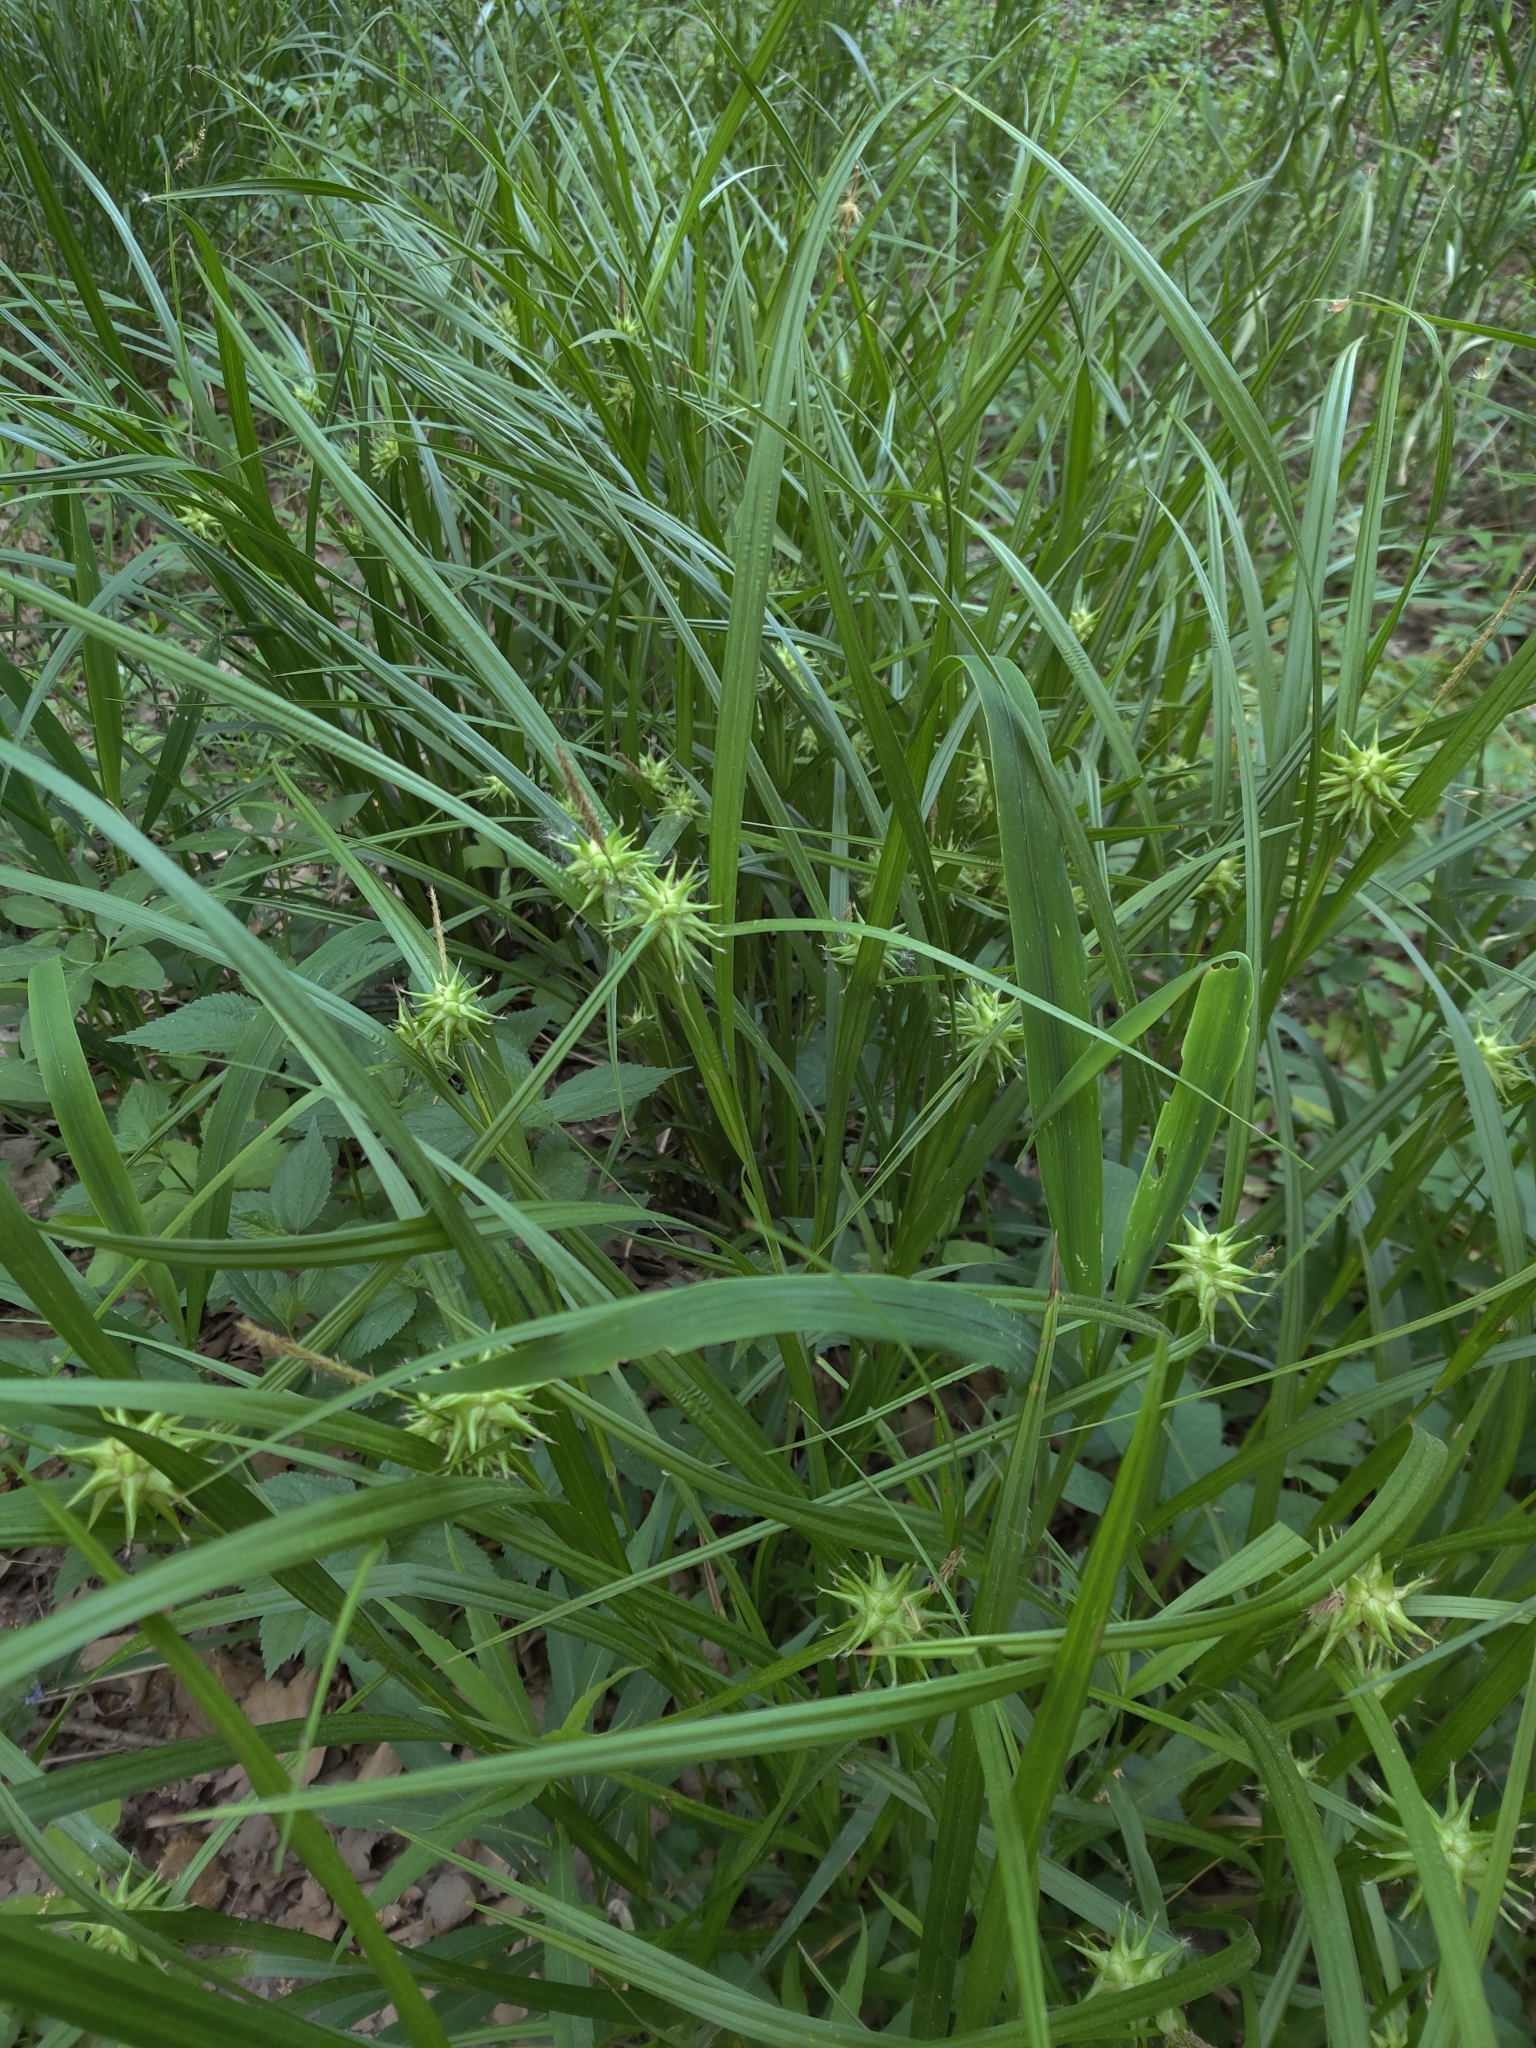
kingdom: Plantae
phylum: Tracheophyta
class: Liliopsida
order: Poales
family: Cyperaceae
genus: Carex
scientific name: Carex grayi
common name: Asa gray's sedge
